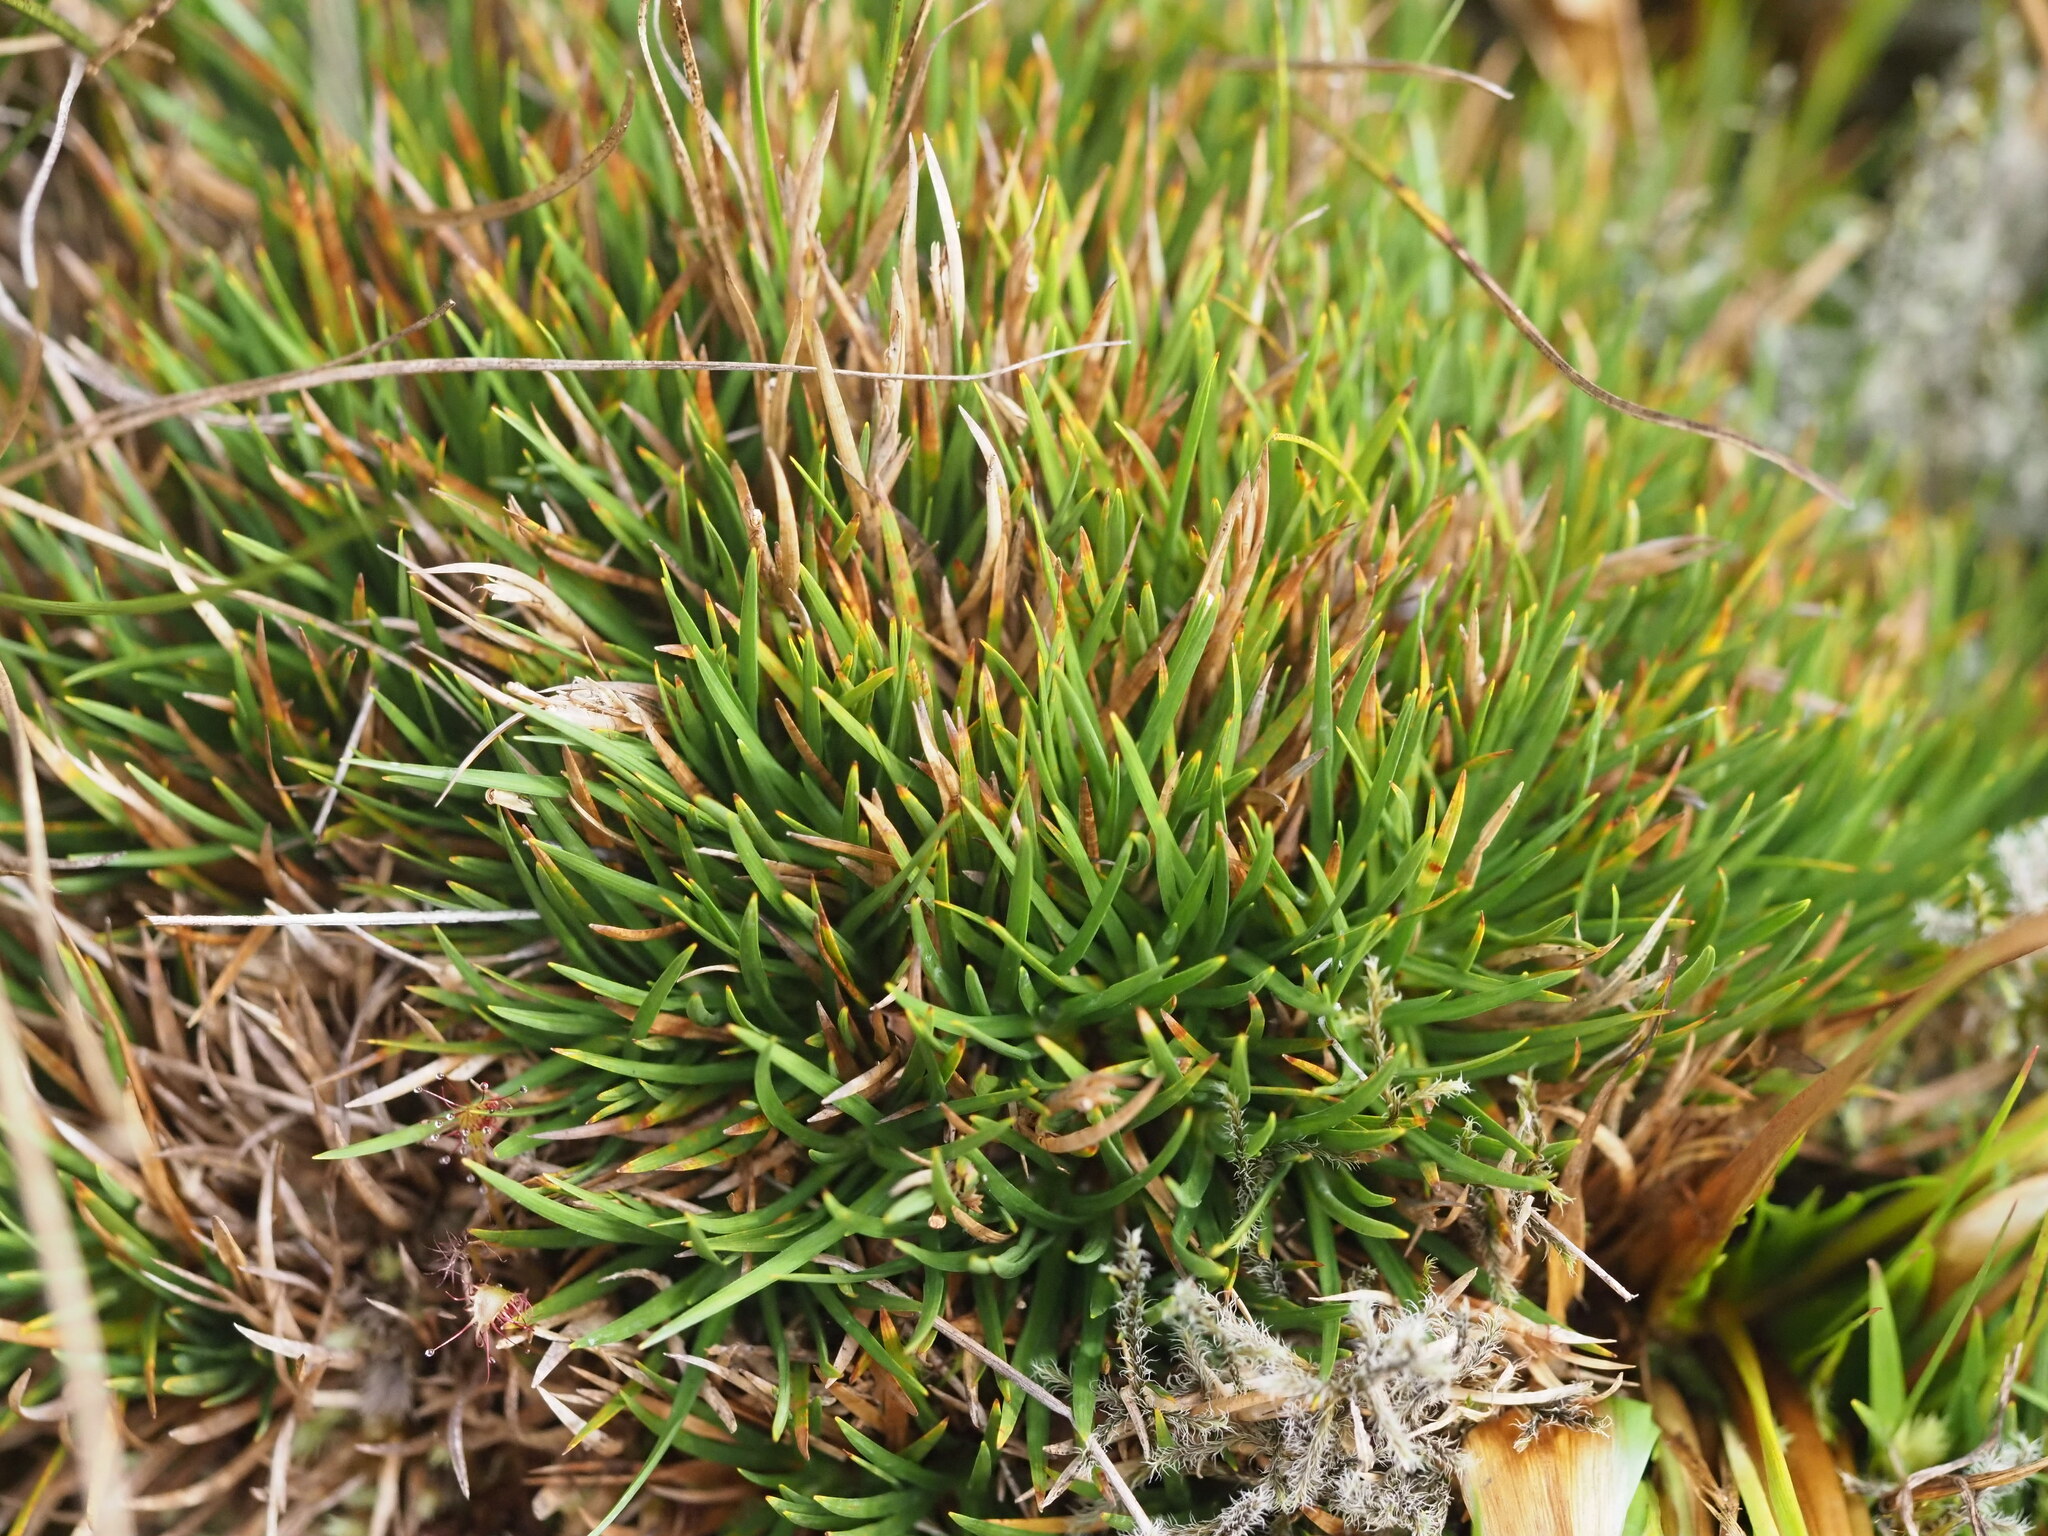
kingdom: Plantae
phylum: Tracheophyta
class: Liliopsida
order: Poales
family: Cyperaceae
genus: Oreobolus
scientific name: Oreobolus furcatus
